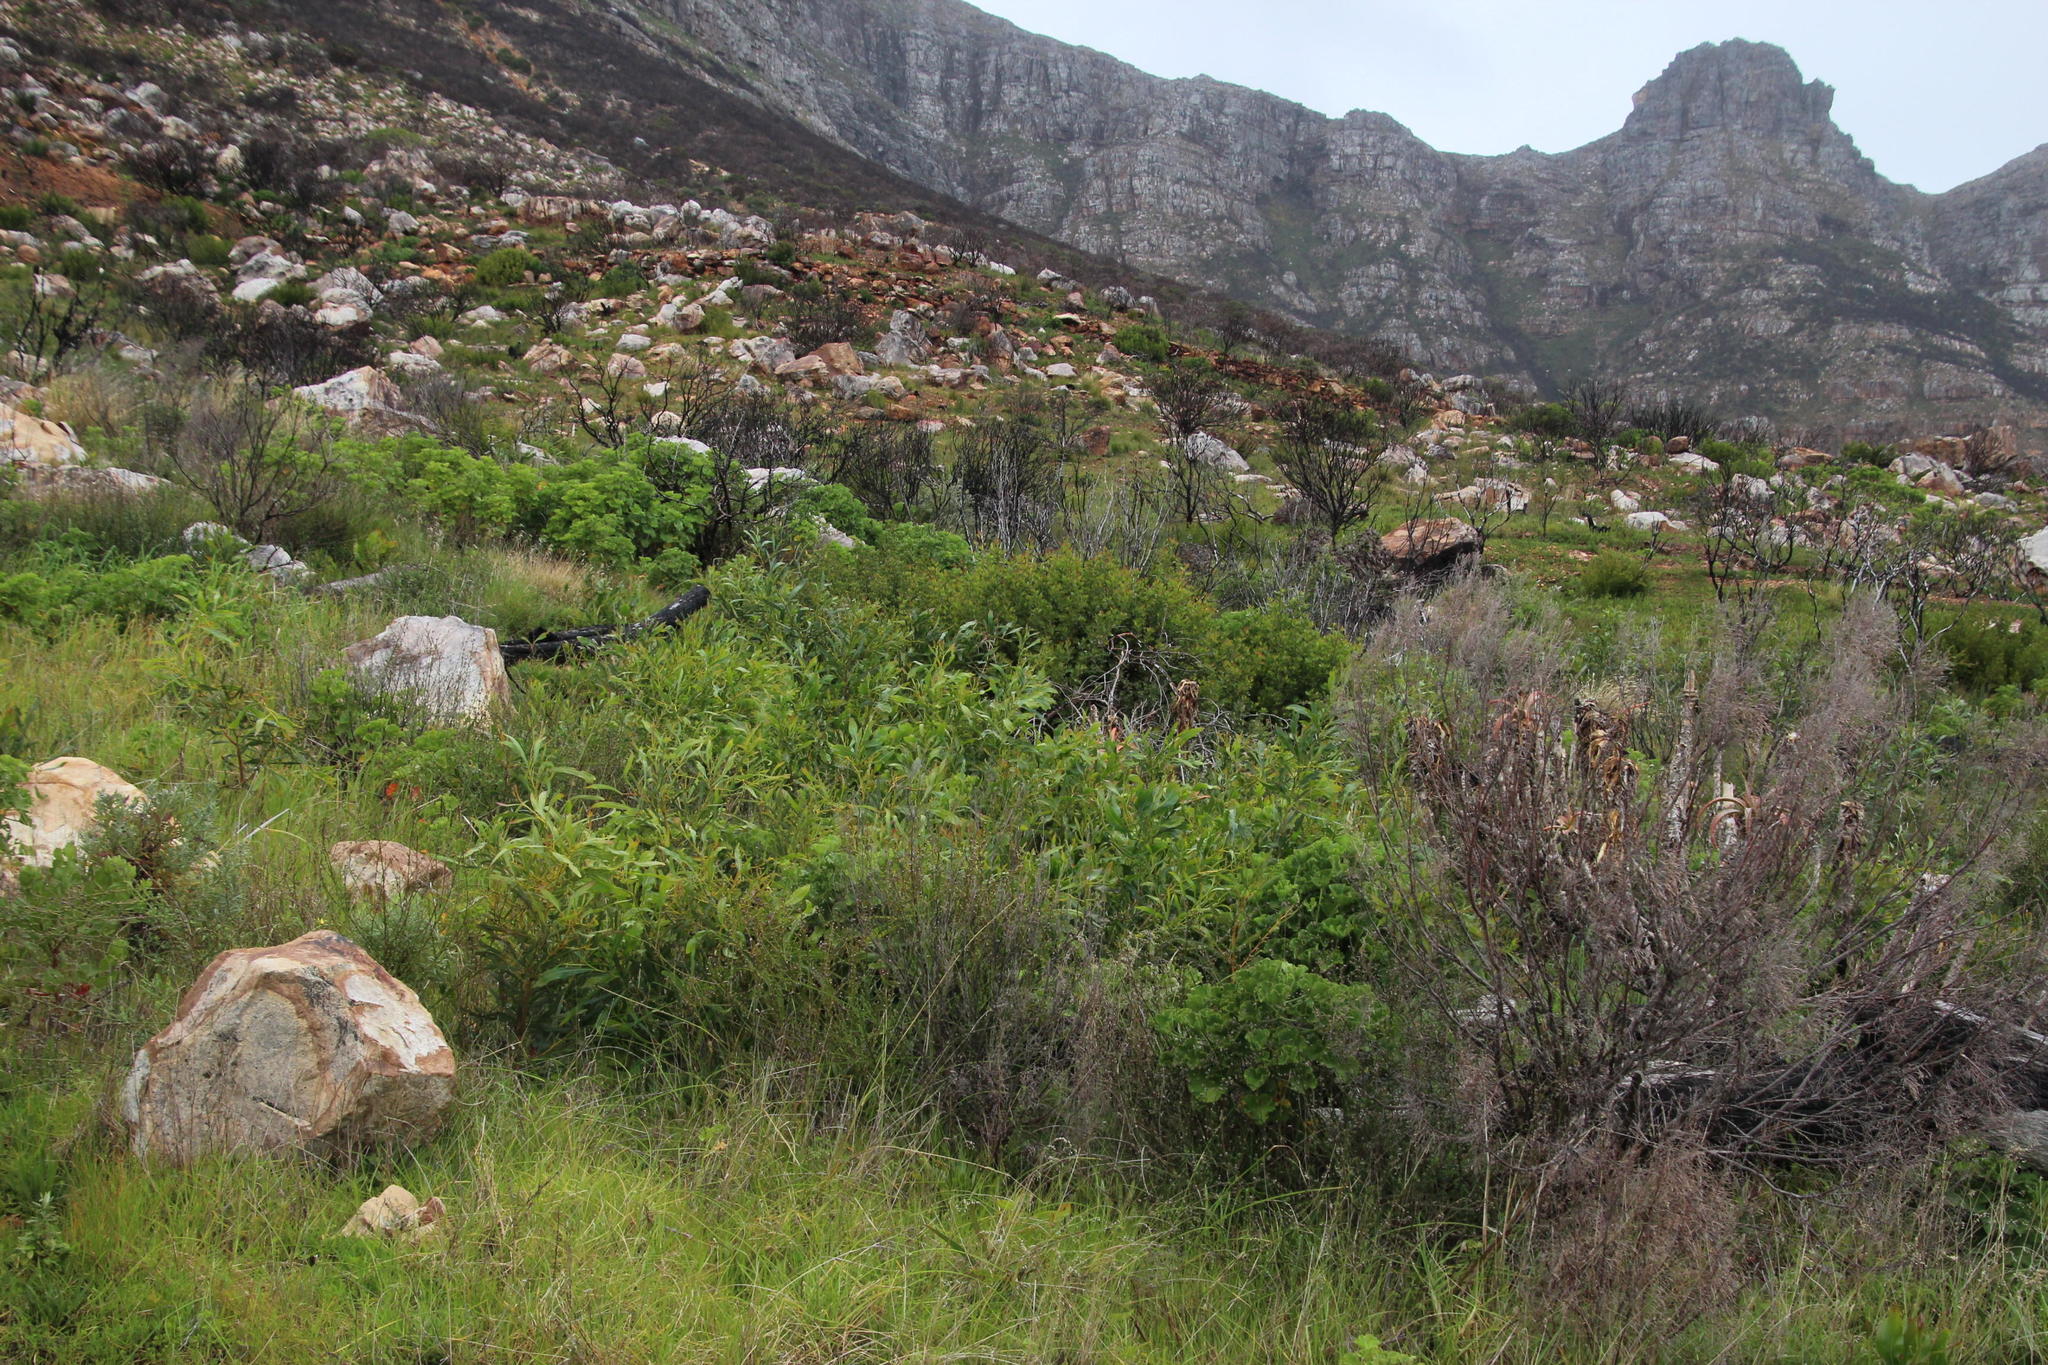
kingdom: Plantae
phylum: Tracheophyta
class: Magnoliopsida
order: Fabales
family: Fabaceae
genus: Acacia
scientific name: Acacia saligna
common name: Orange wattle
